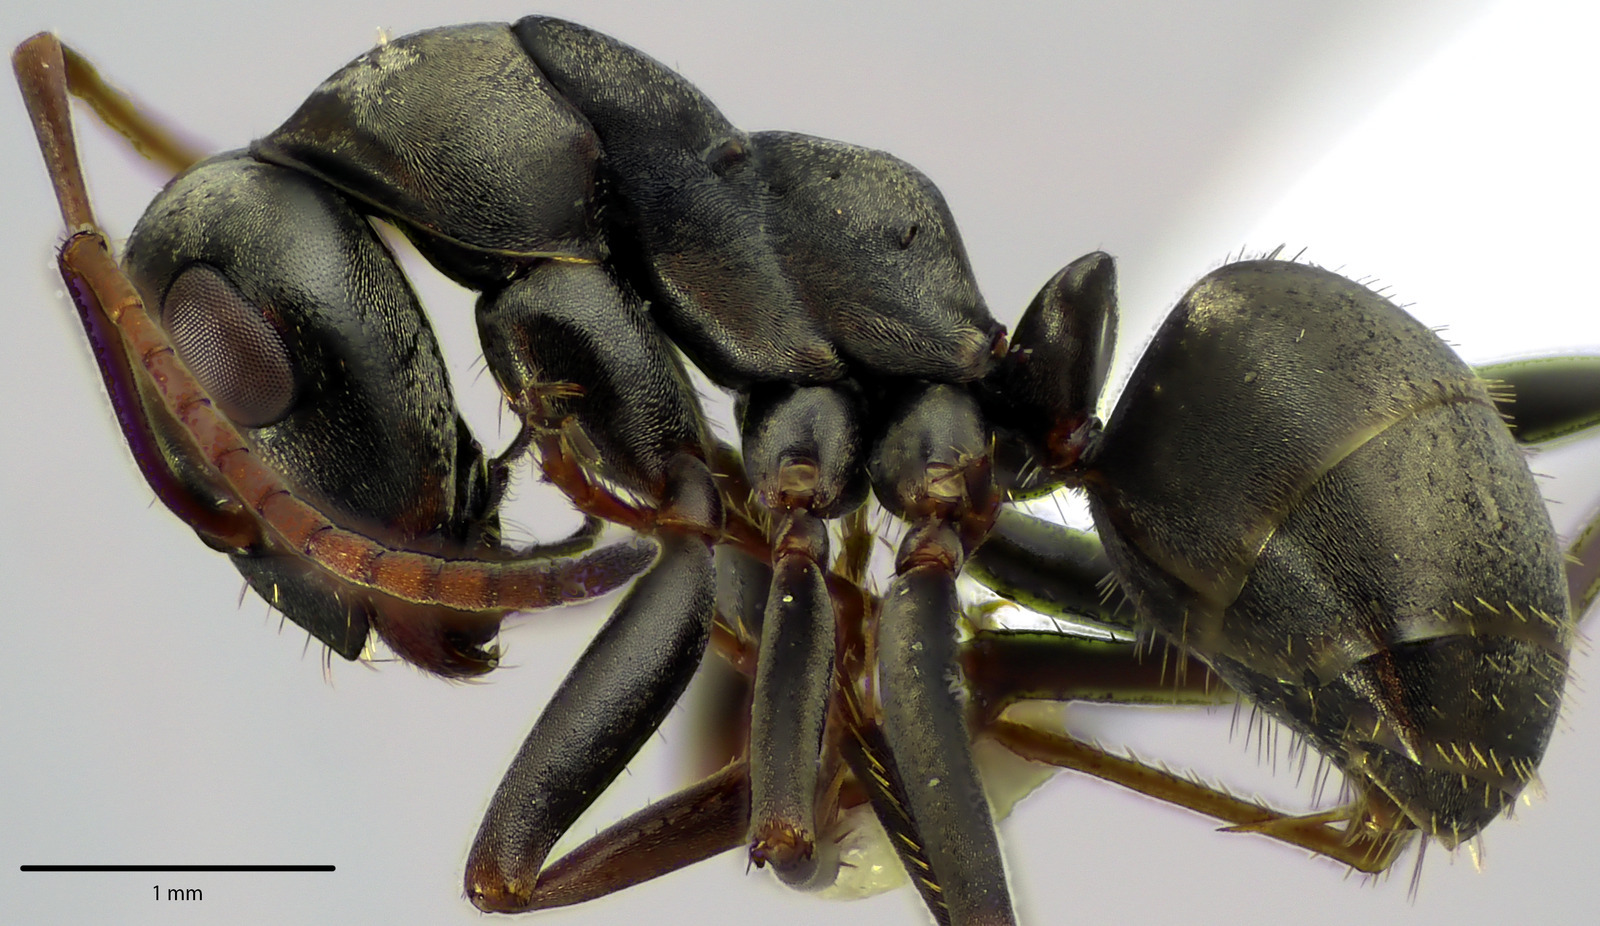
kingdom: Animalia
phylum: Arthropoda
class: Insecta
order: Hymenoptera
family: Formicidae
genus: Formica
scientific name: Formica argentea
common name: Silvery field ant
